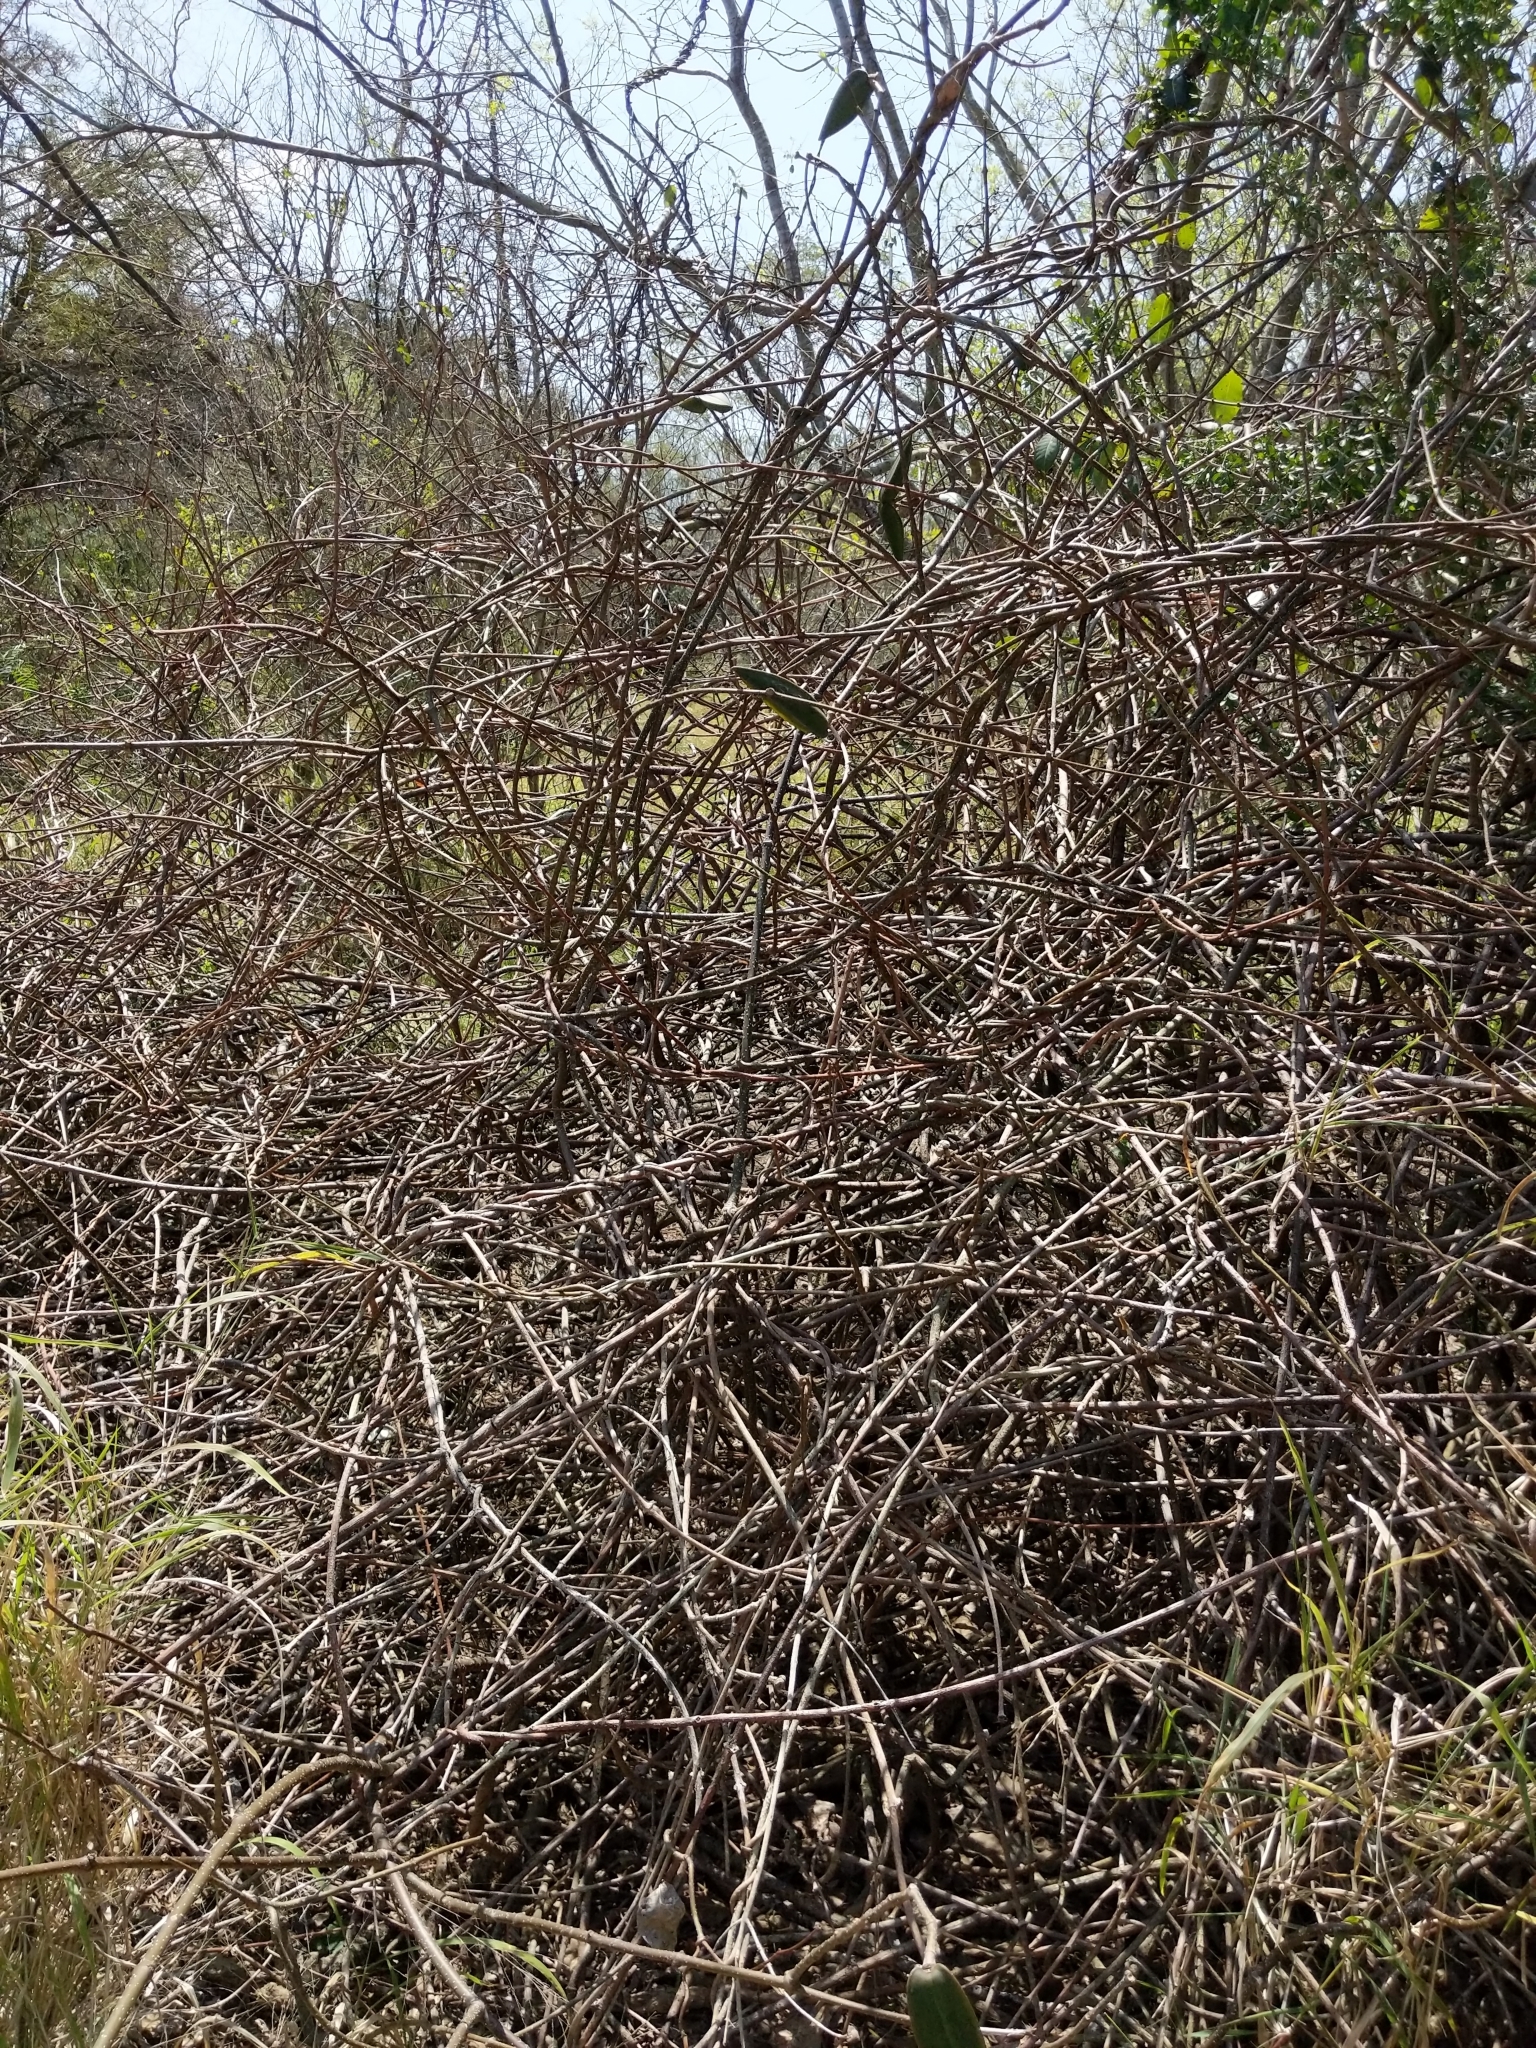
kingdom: Plantae
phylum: Tracheophyta
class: Magnoliopsida
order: Gentianales
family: Apocynaceae
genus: Cryptostegia
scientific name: Cryptostegia grandiflora
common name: Palay rubbervine
